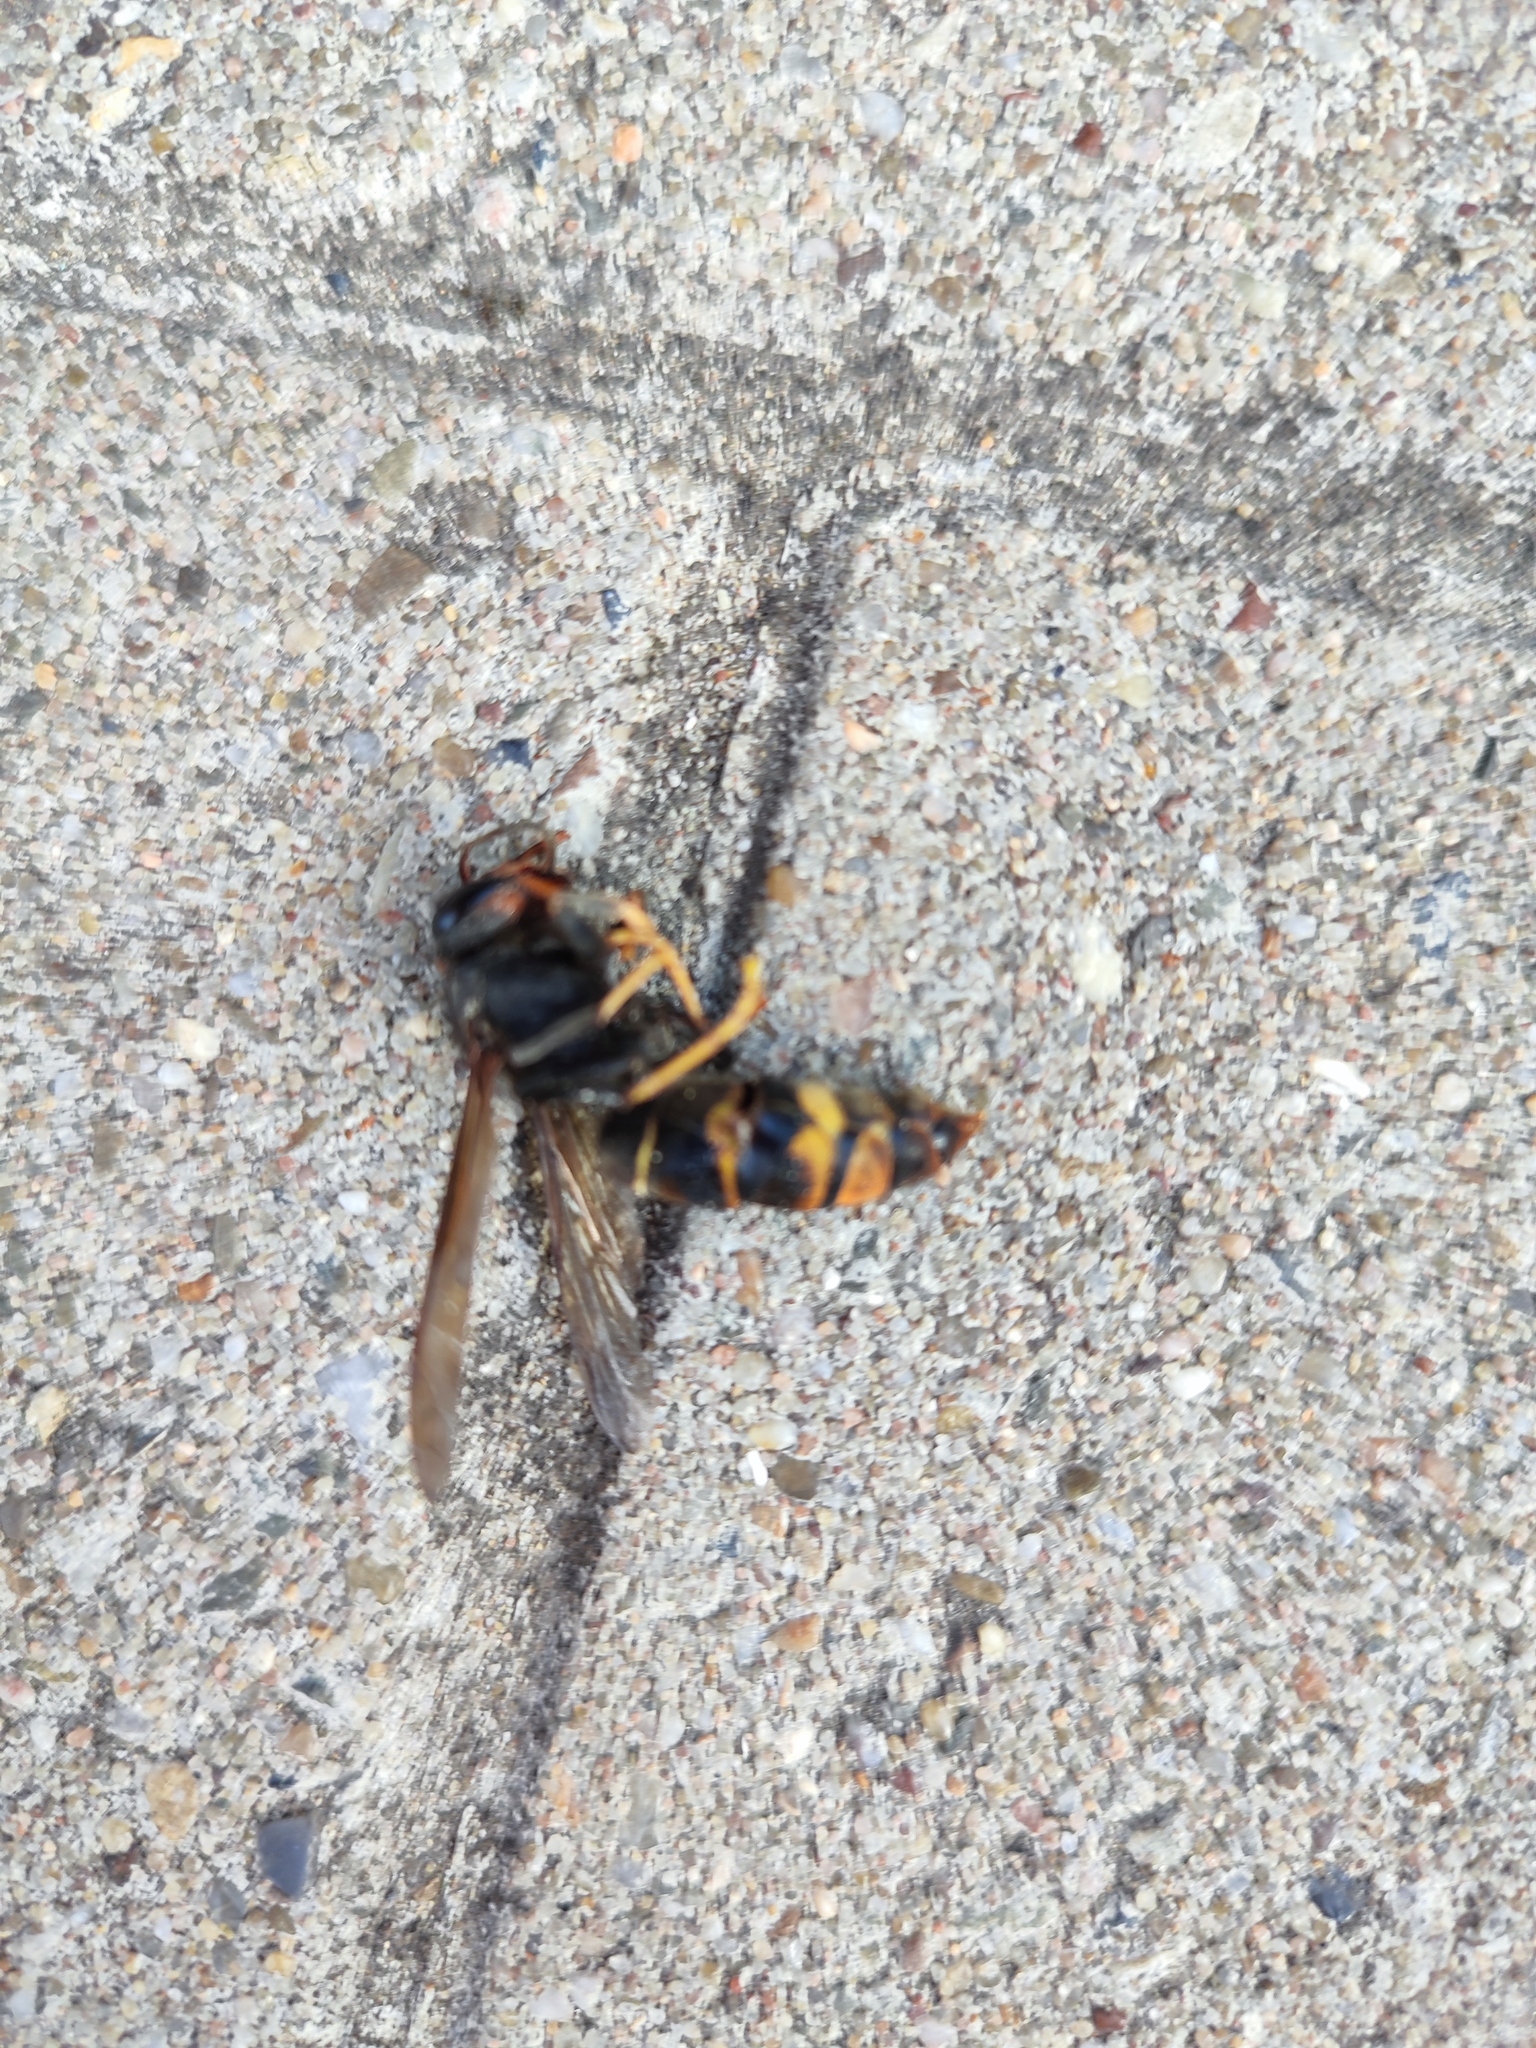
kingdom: Animalia
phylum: Arthropoda
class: Insecta
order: Hymenoptera
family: Vespidae
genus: Vespa
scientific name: Vespa velutina
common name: Asian hornet
